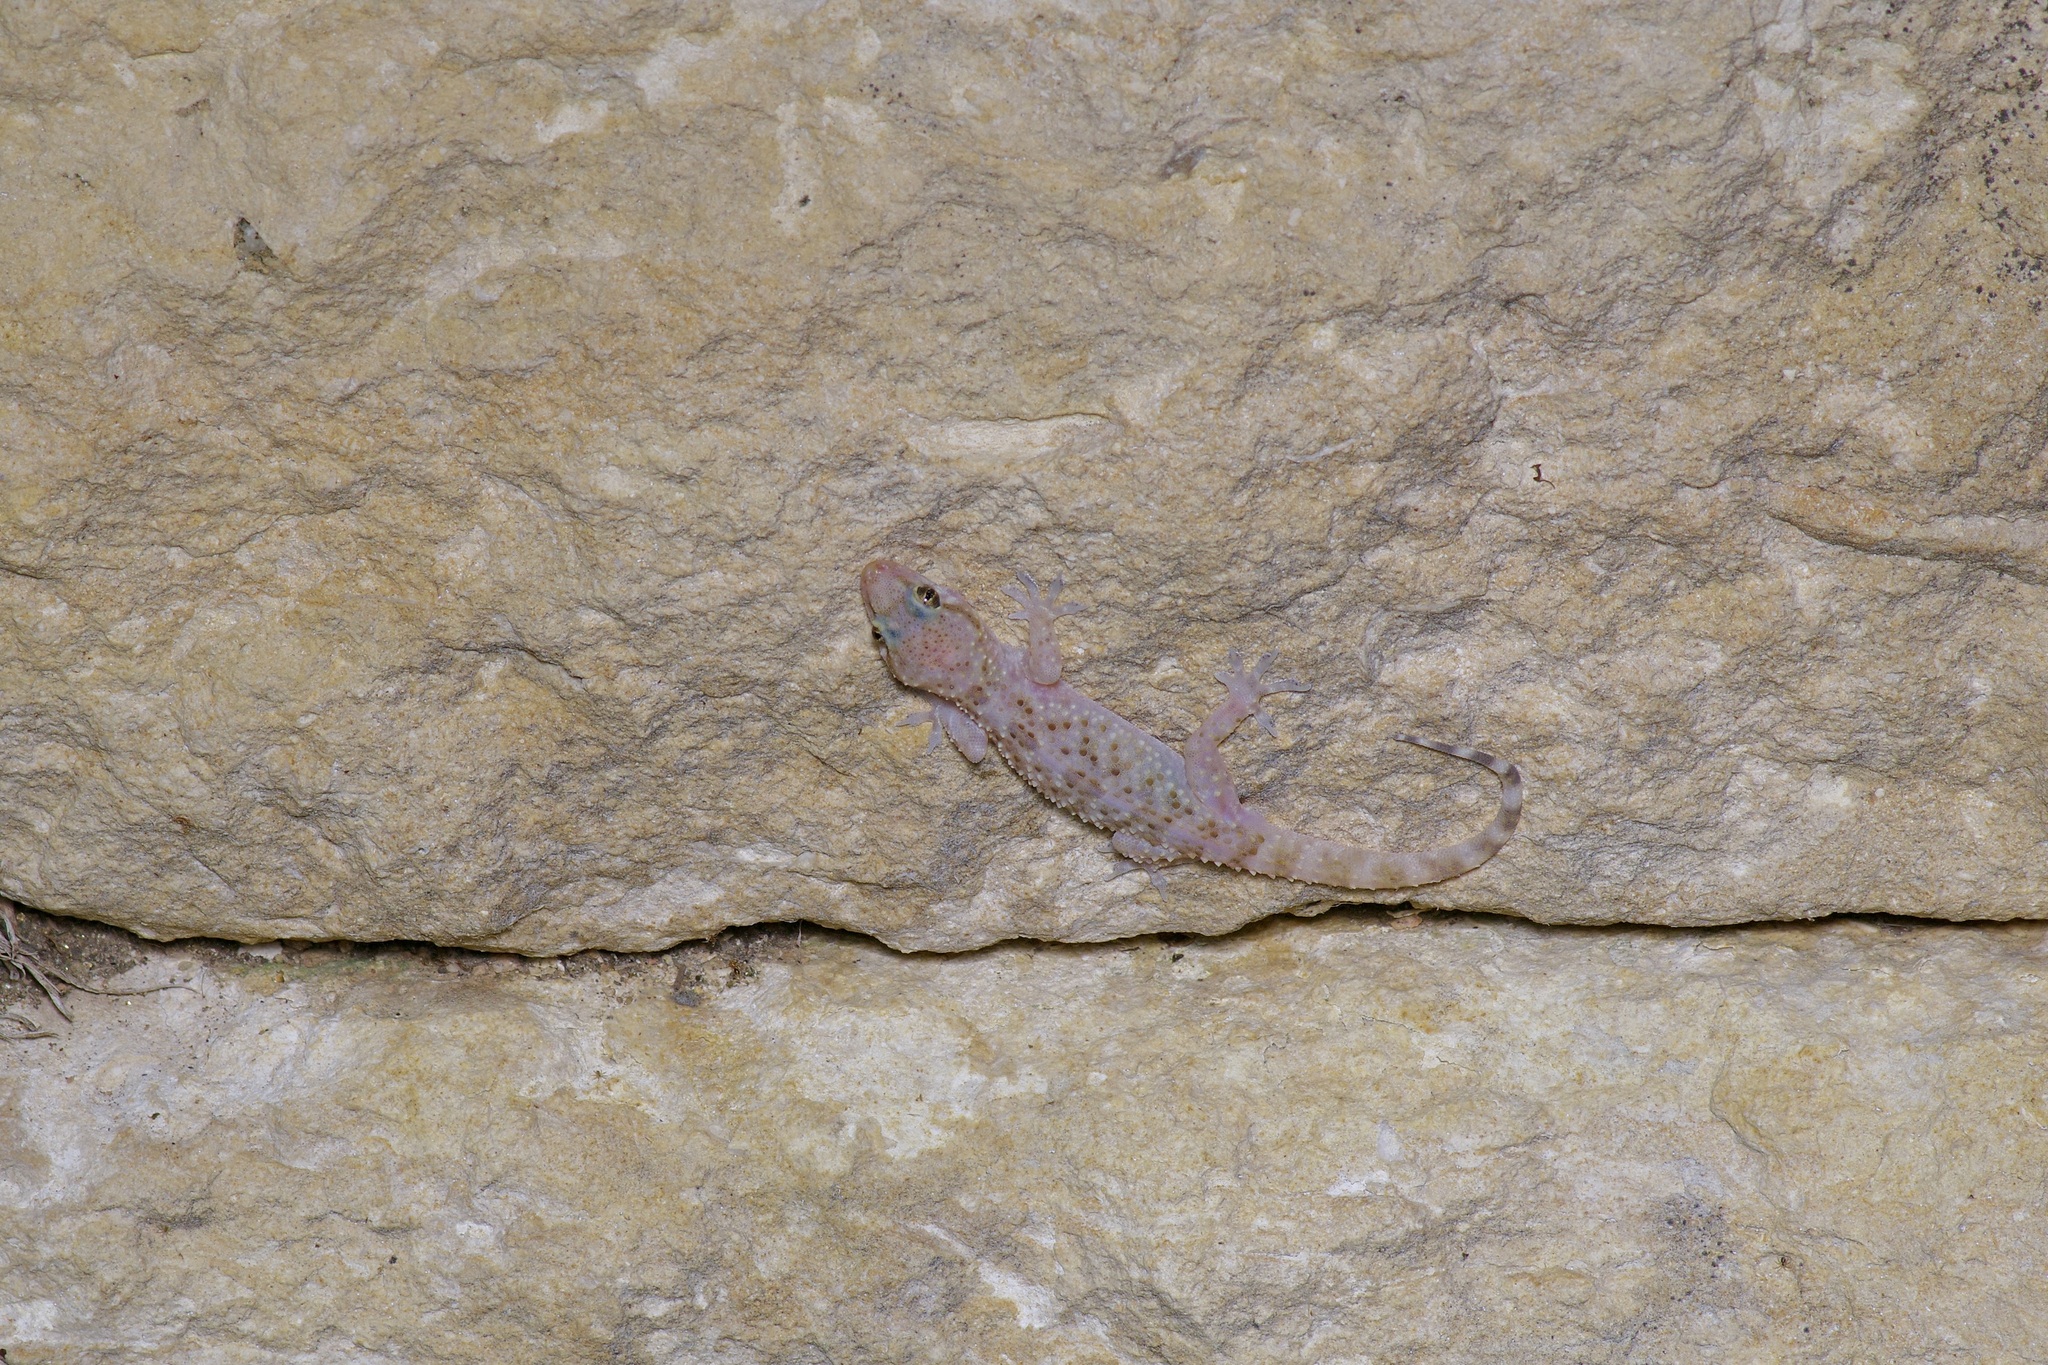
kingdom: Animalia
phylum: Chordata
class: Squamata
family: Gekkonidae
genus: Hemidactylus
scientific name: Hemidactylus turcicus
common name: Turkish gecko
